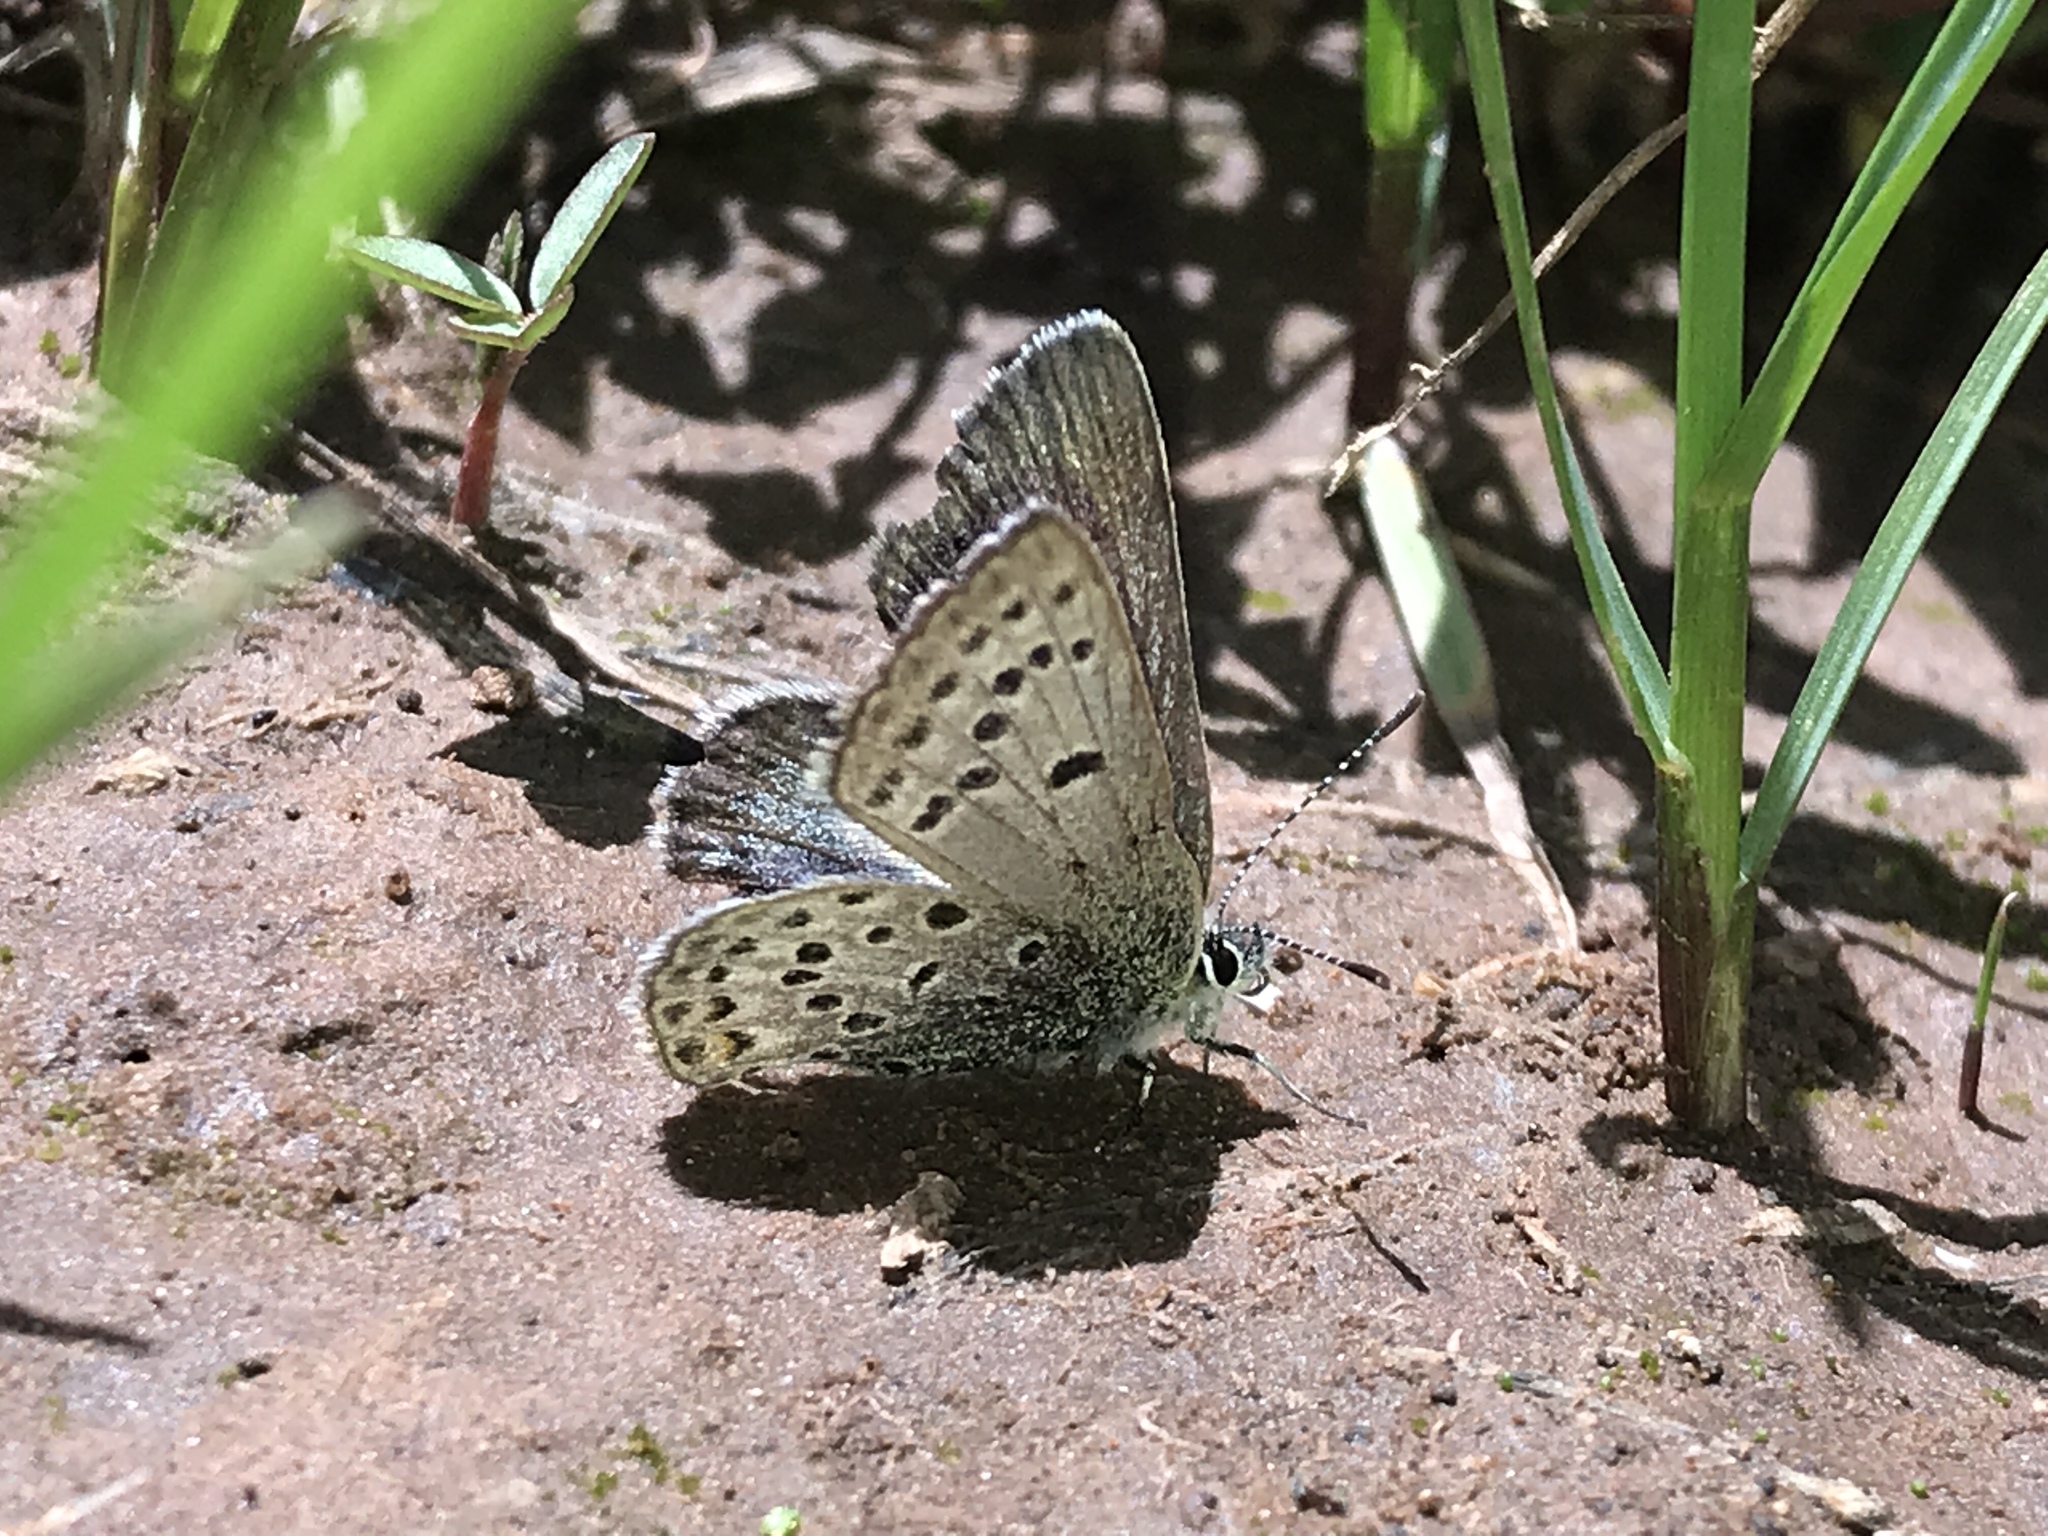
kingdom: Animalia
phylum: Arthropoda
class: Insecta
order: Lepidoptera
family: Lycaenidae
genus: Icaricia
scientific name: Icaricia saepiolus
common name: Greenish blue
